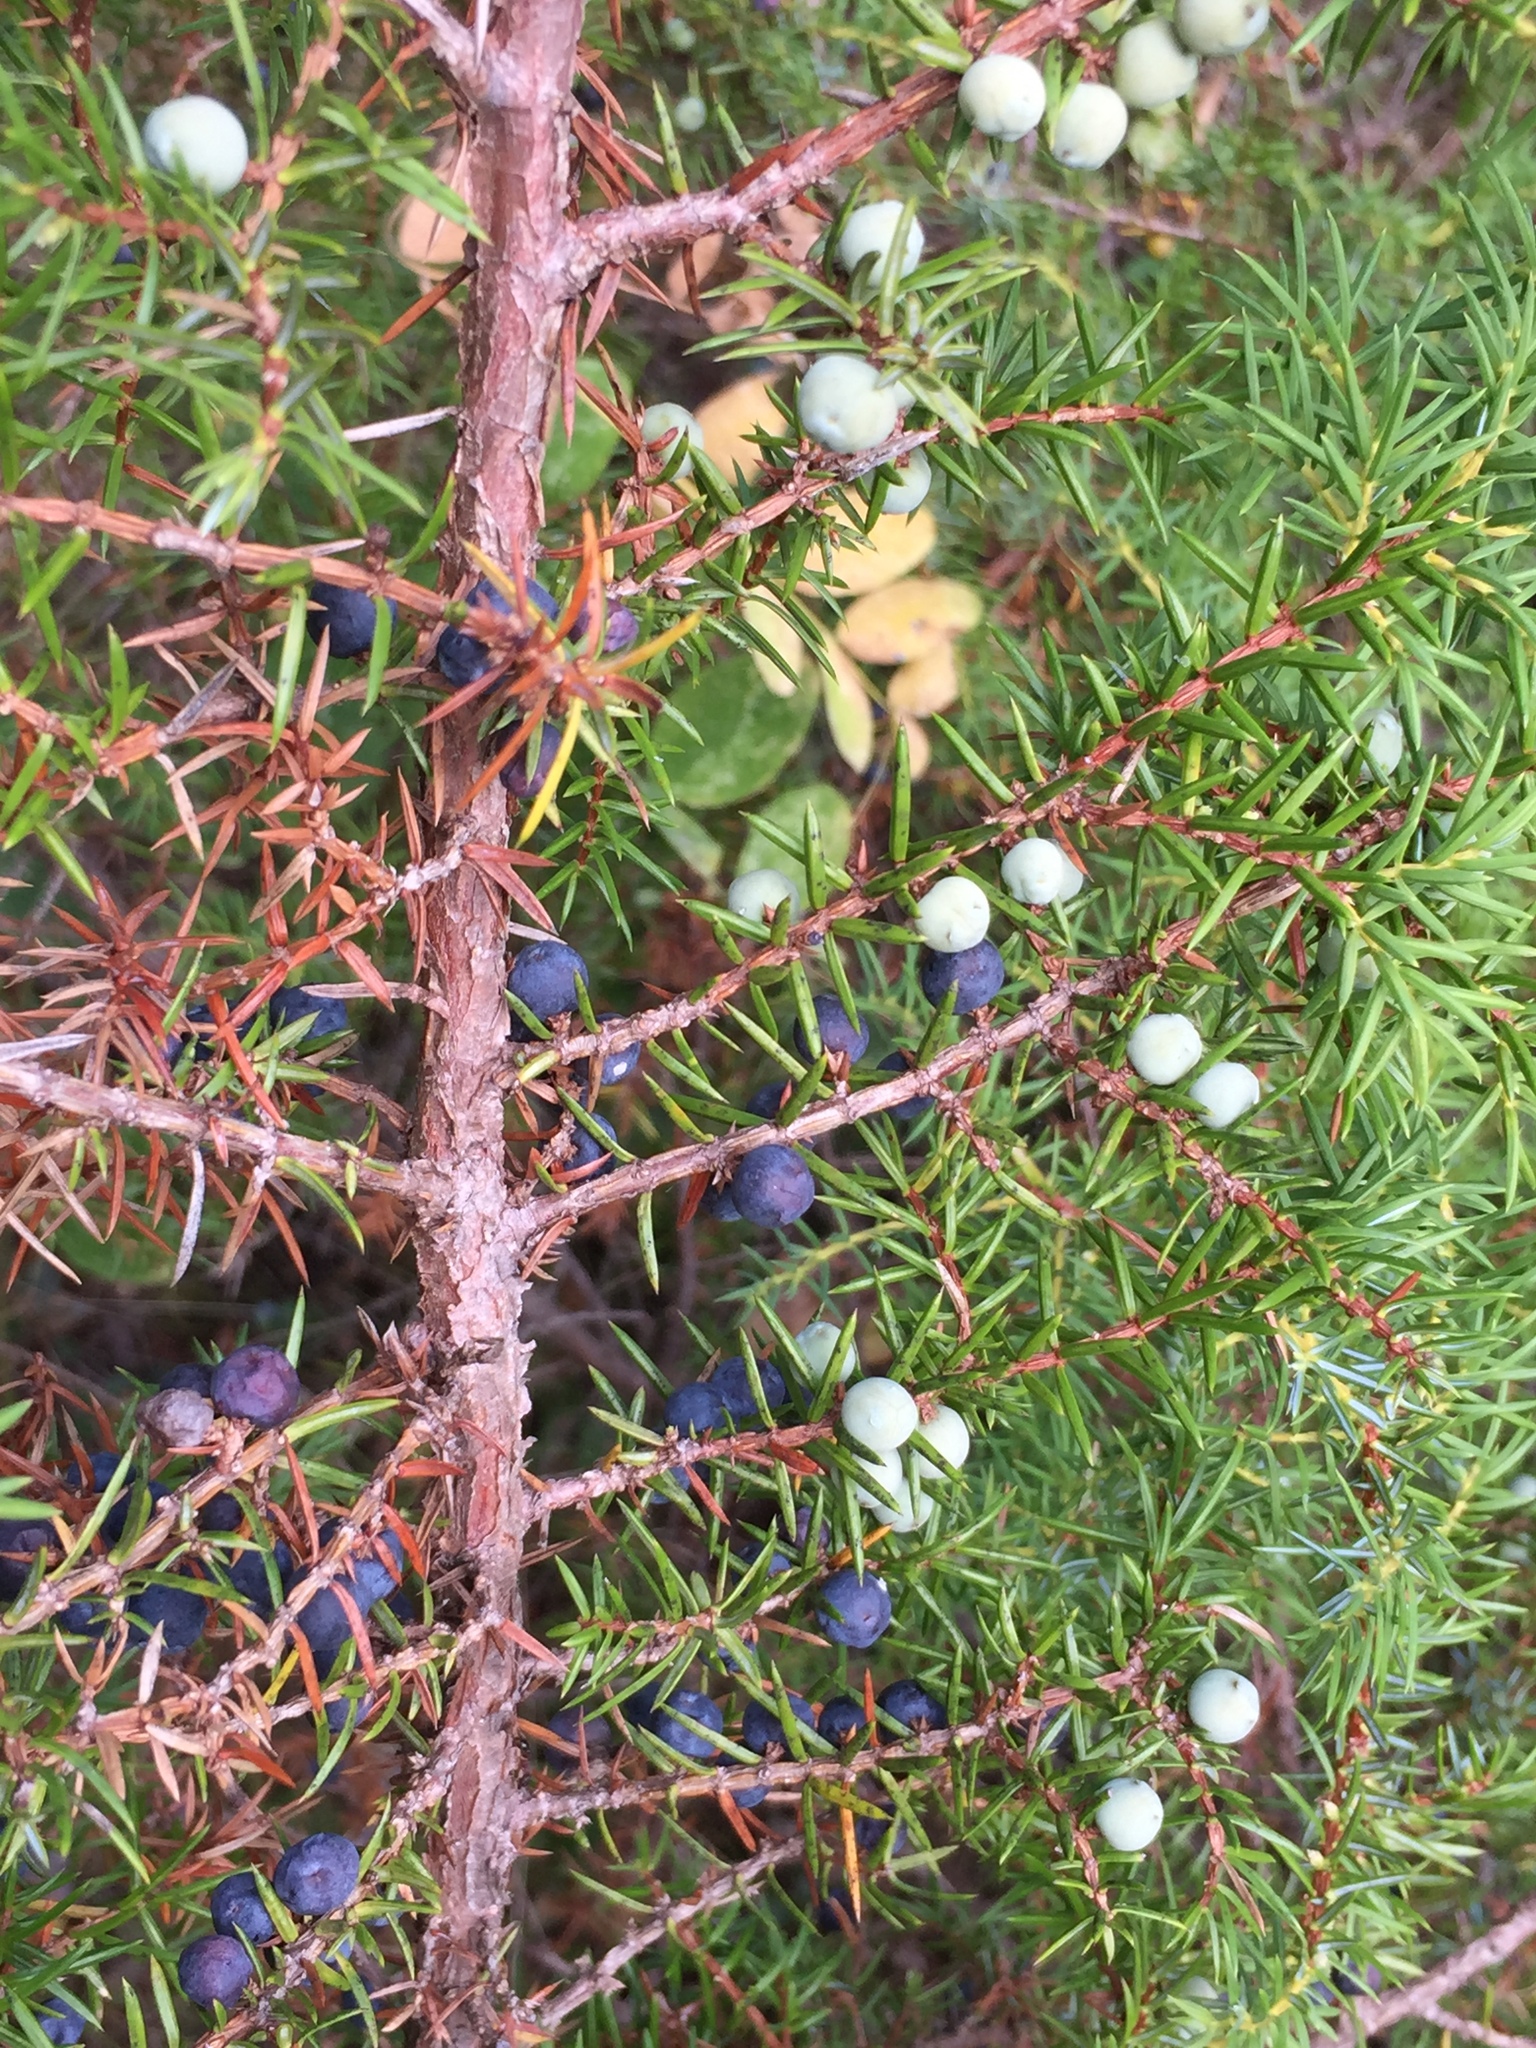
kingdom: Plantae
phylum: Tracheophyta
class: Pinopsida
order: Pinales
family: Cupressaceae
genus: Juniperus
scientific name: Juniperus communis
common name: Common juniper
